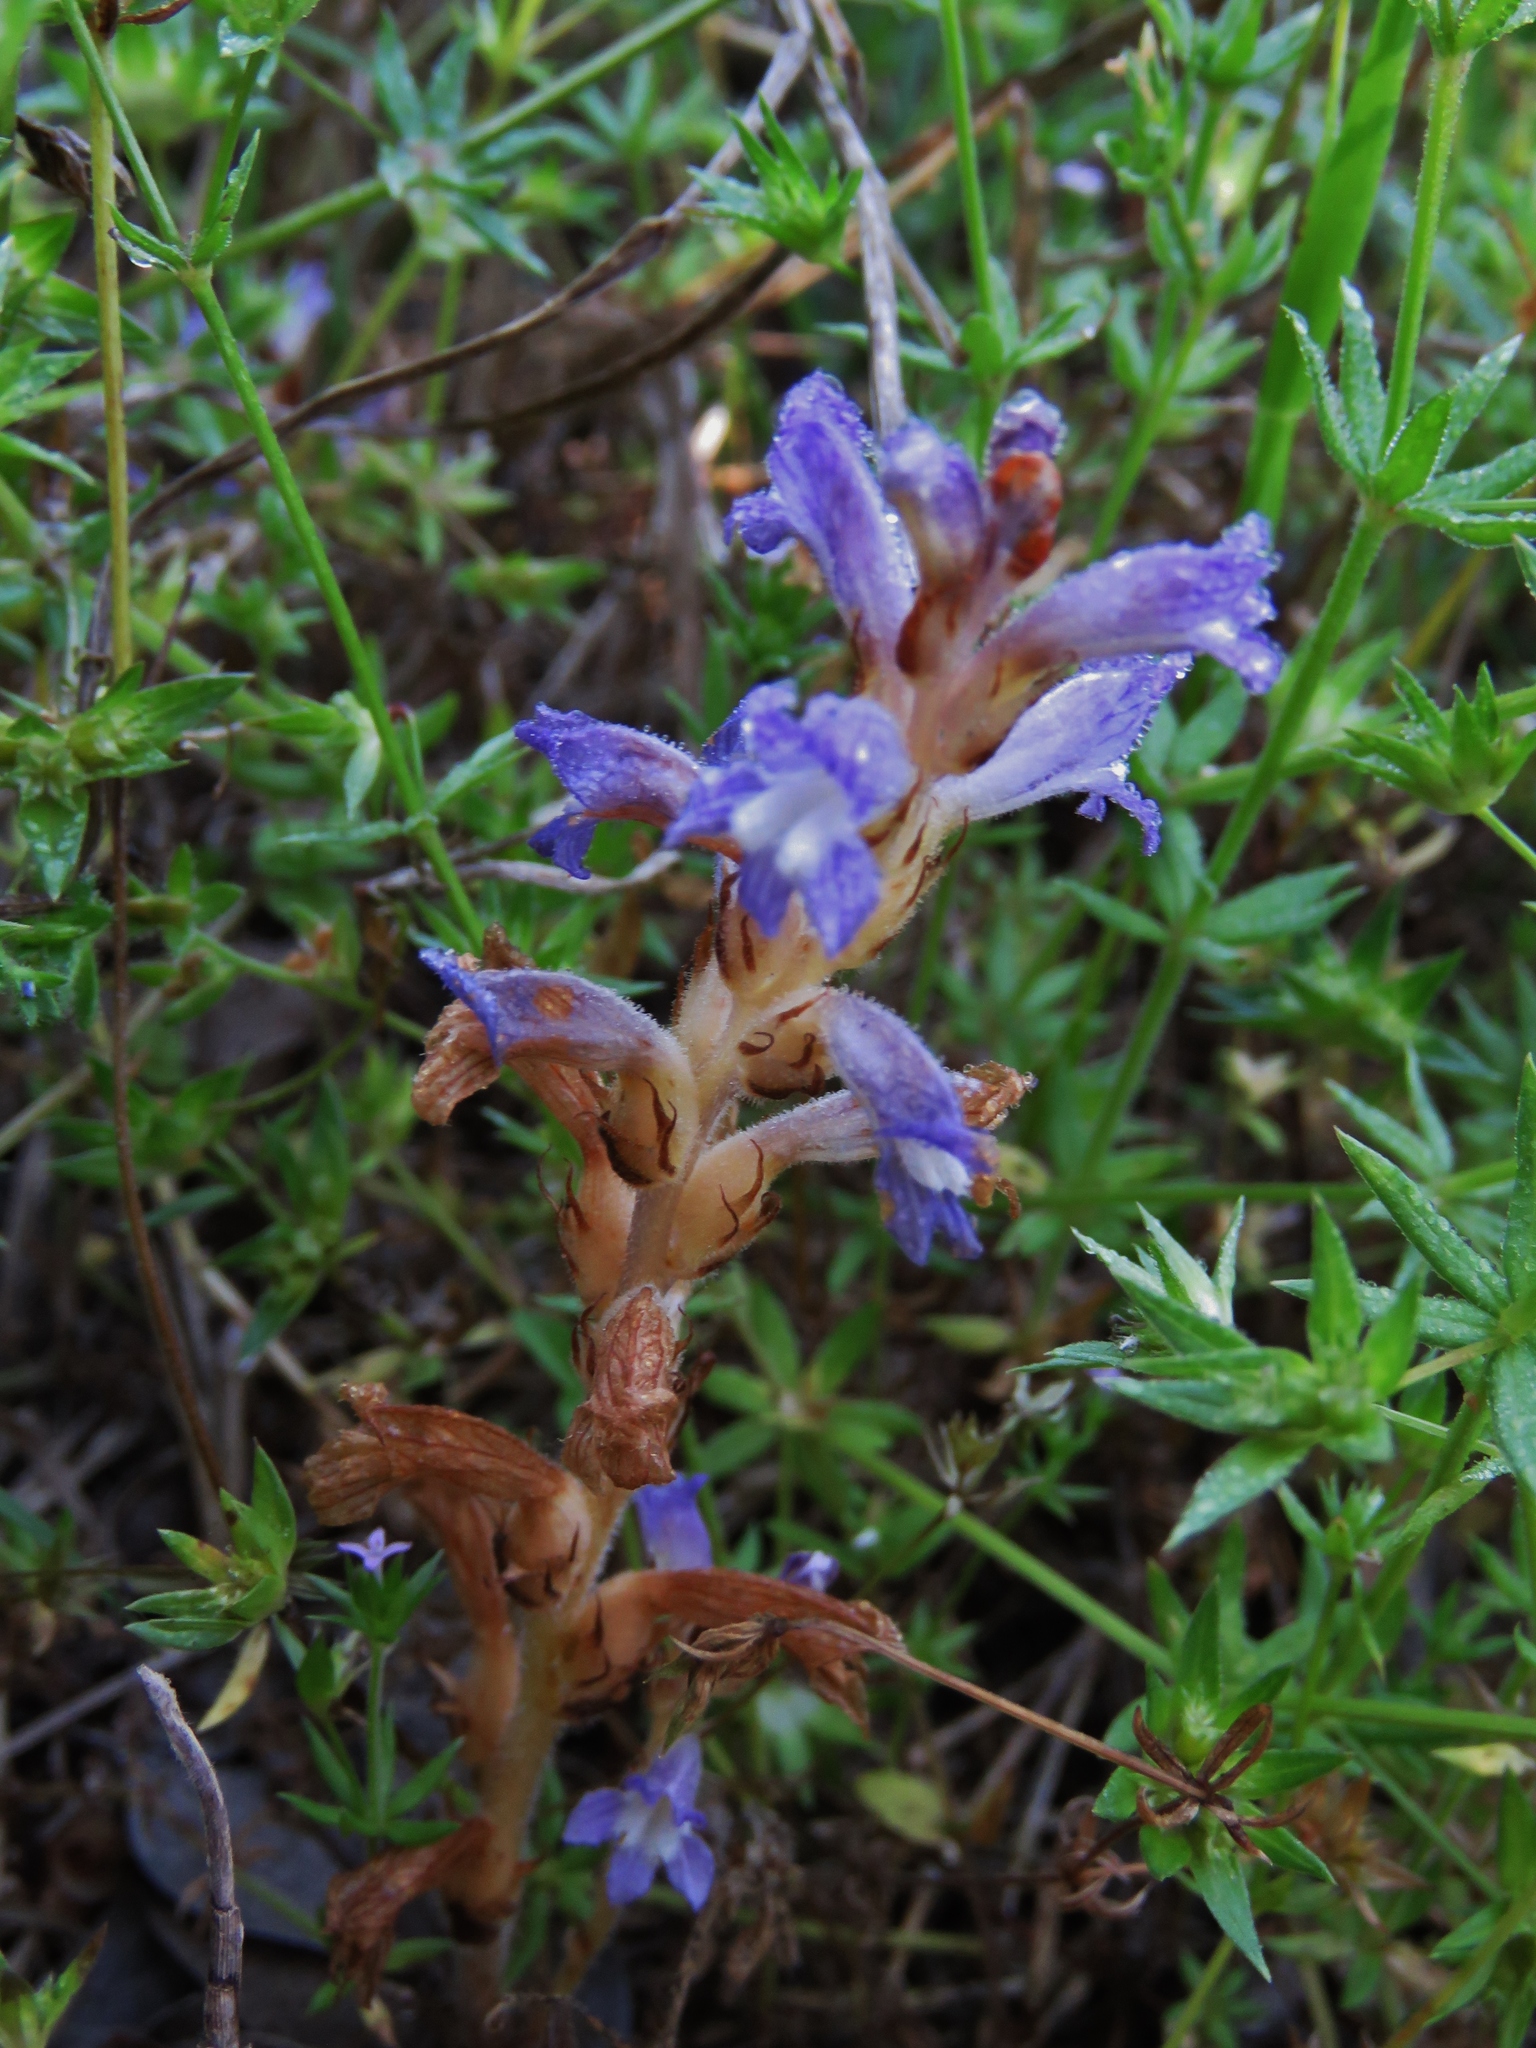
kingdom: Plantae
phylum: Tracheophyta
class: Magnoliopsida
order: Lamiales
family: Orobanchaceae
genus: Phelipanche
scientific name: Phelipanche ramosa
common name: Branched broomrape
